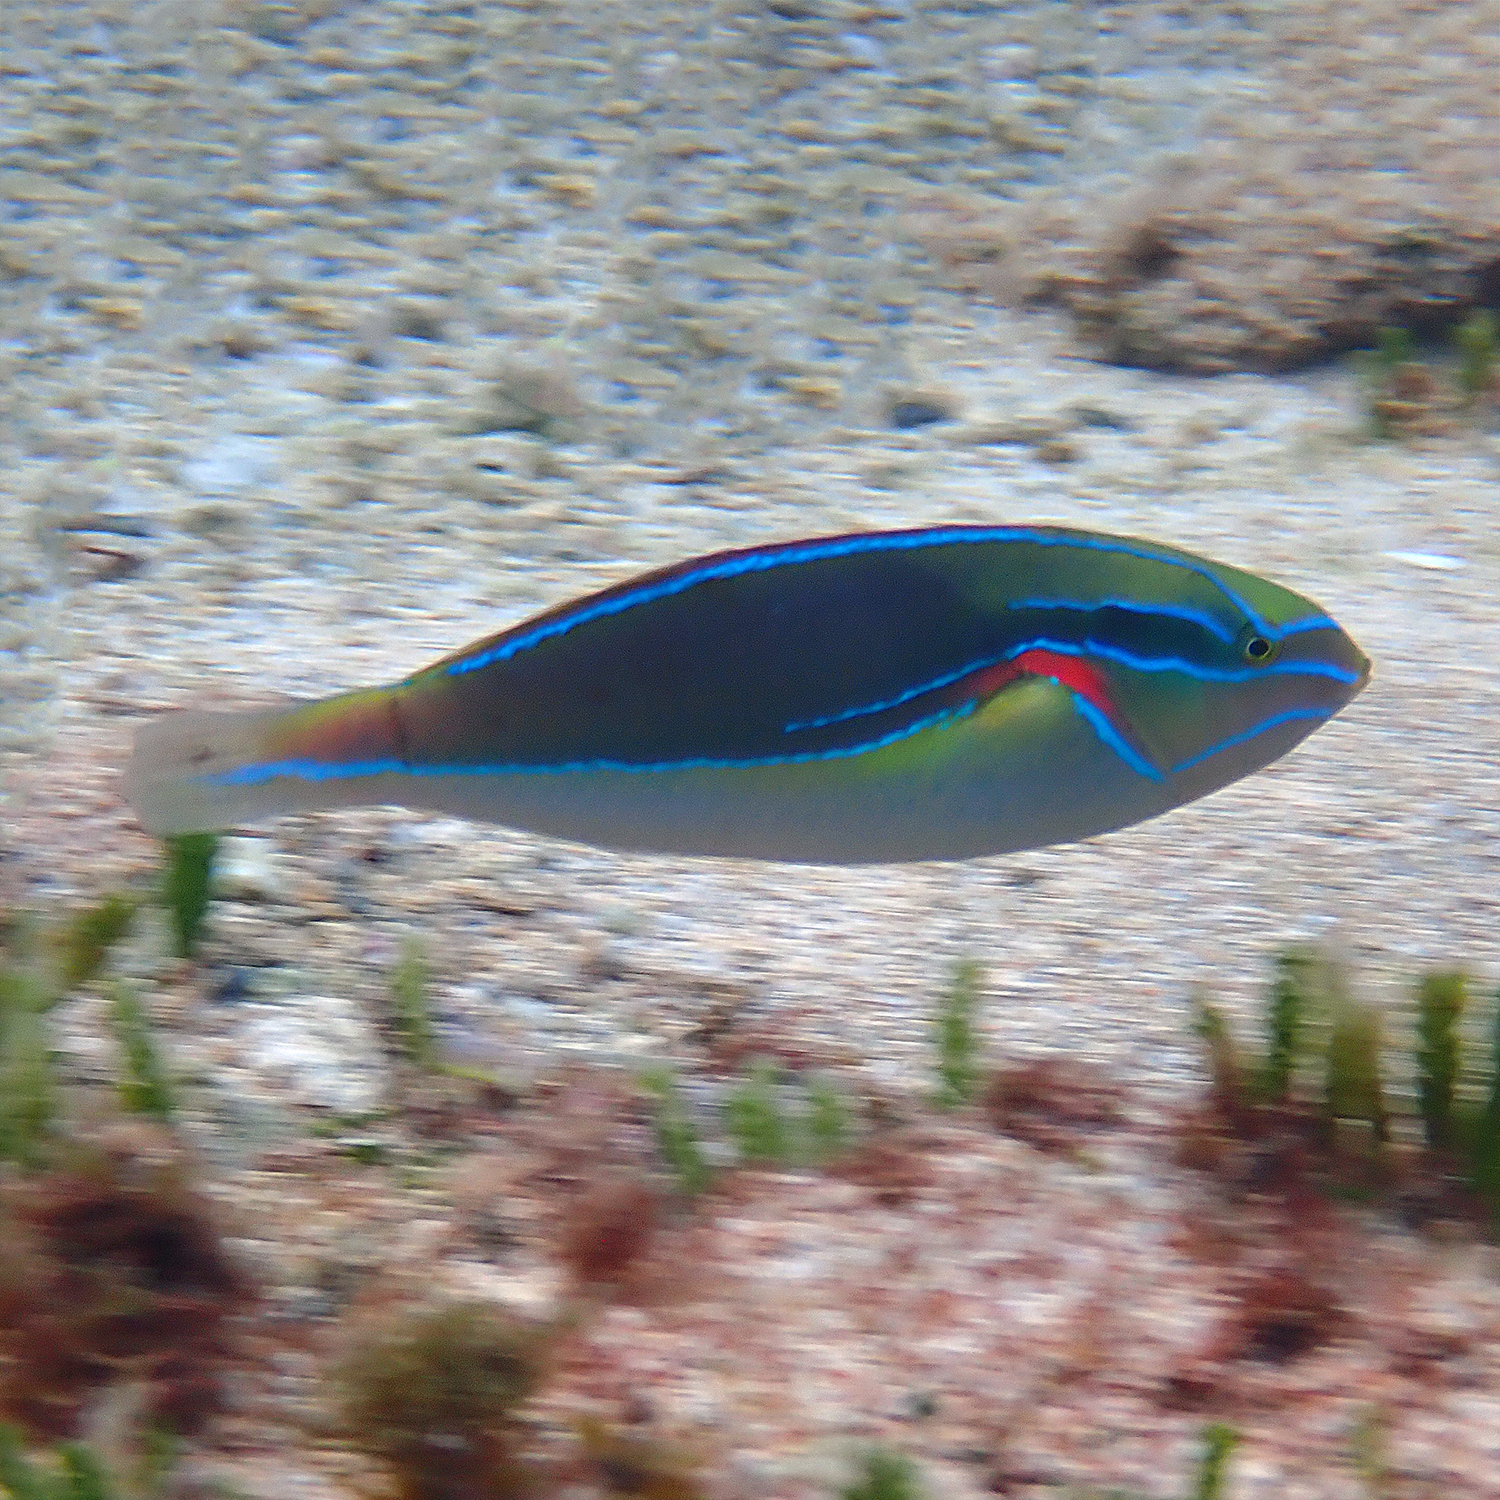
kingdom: Animalia
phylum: Chordata
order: Perciformes
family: Labridae
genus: Stethojulis
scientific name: Stethojulis bandanensis
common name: Red shoulder wrasse
